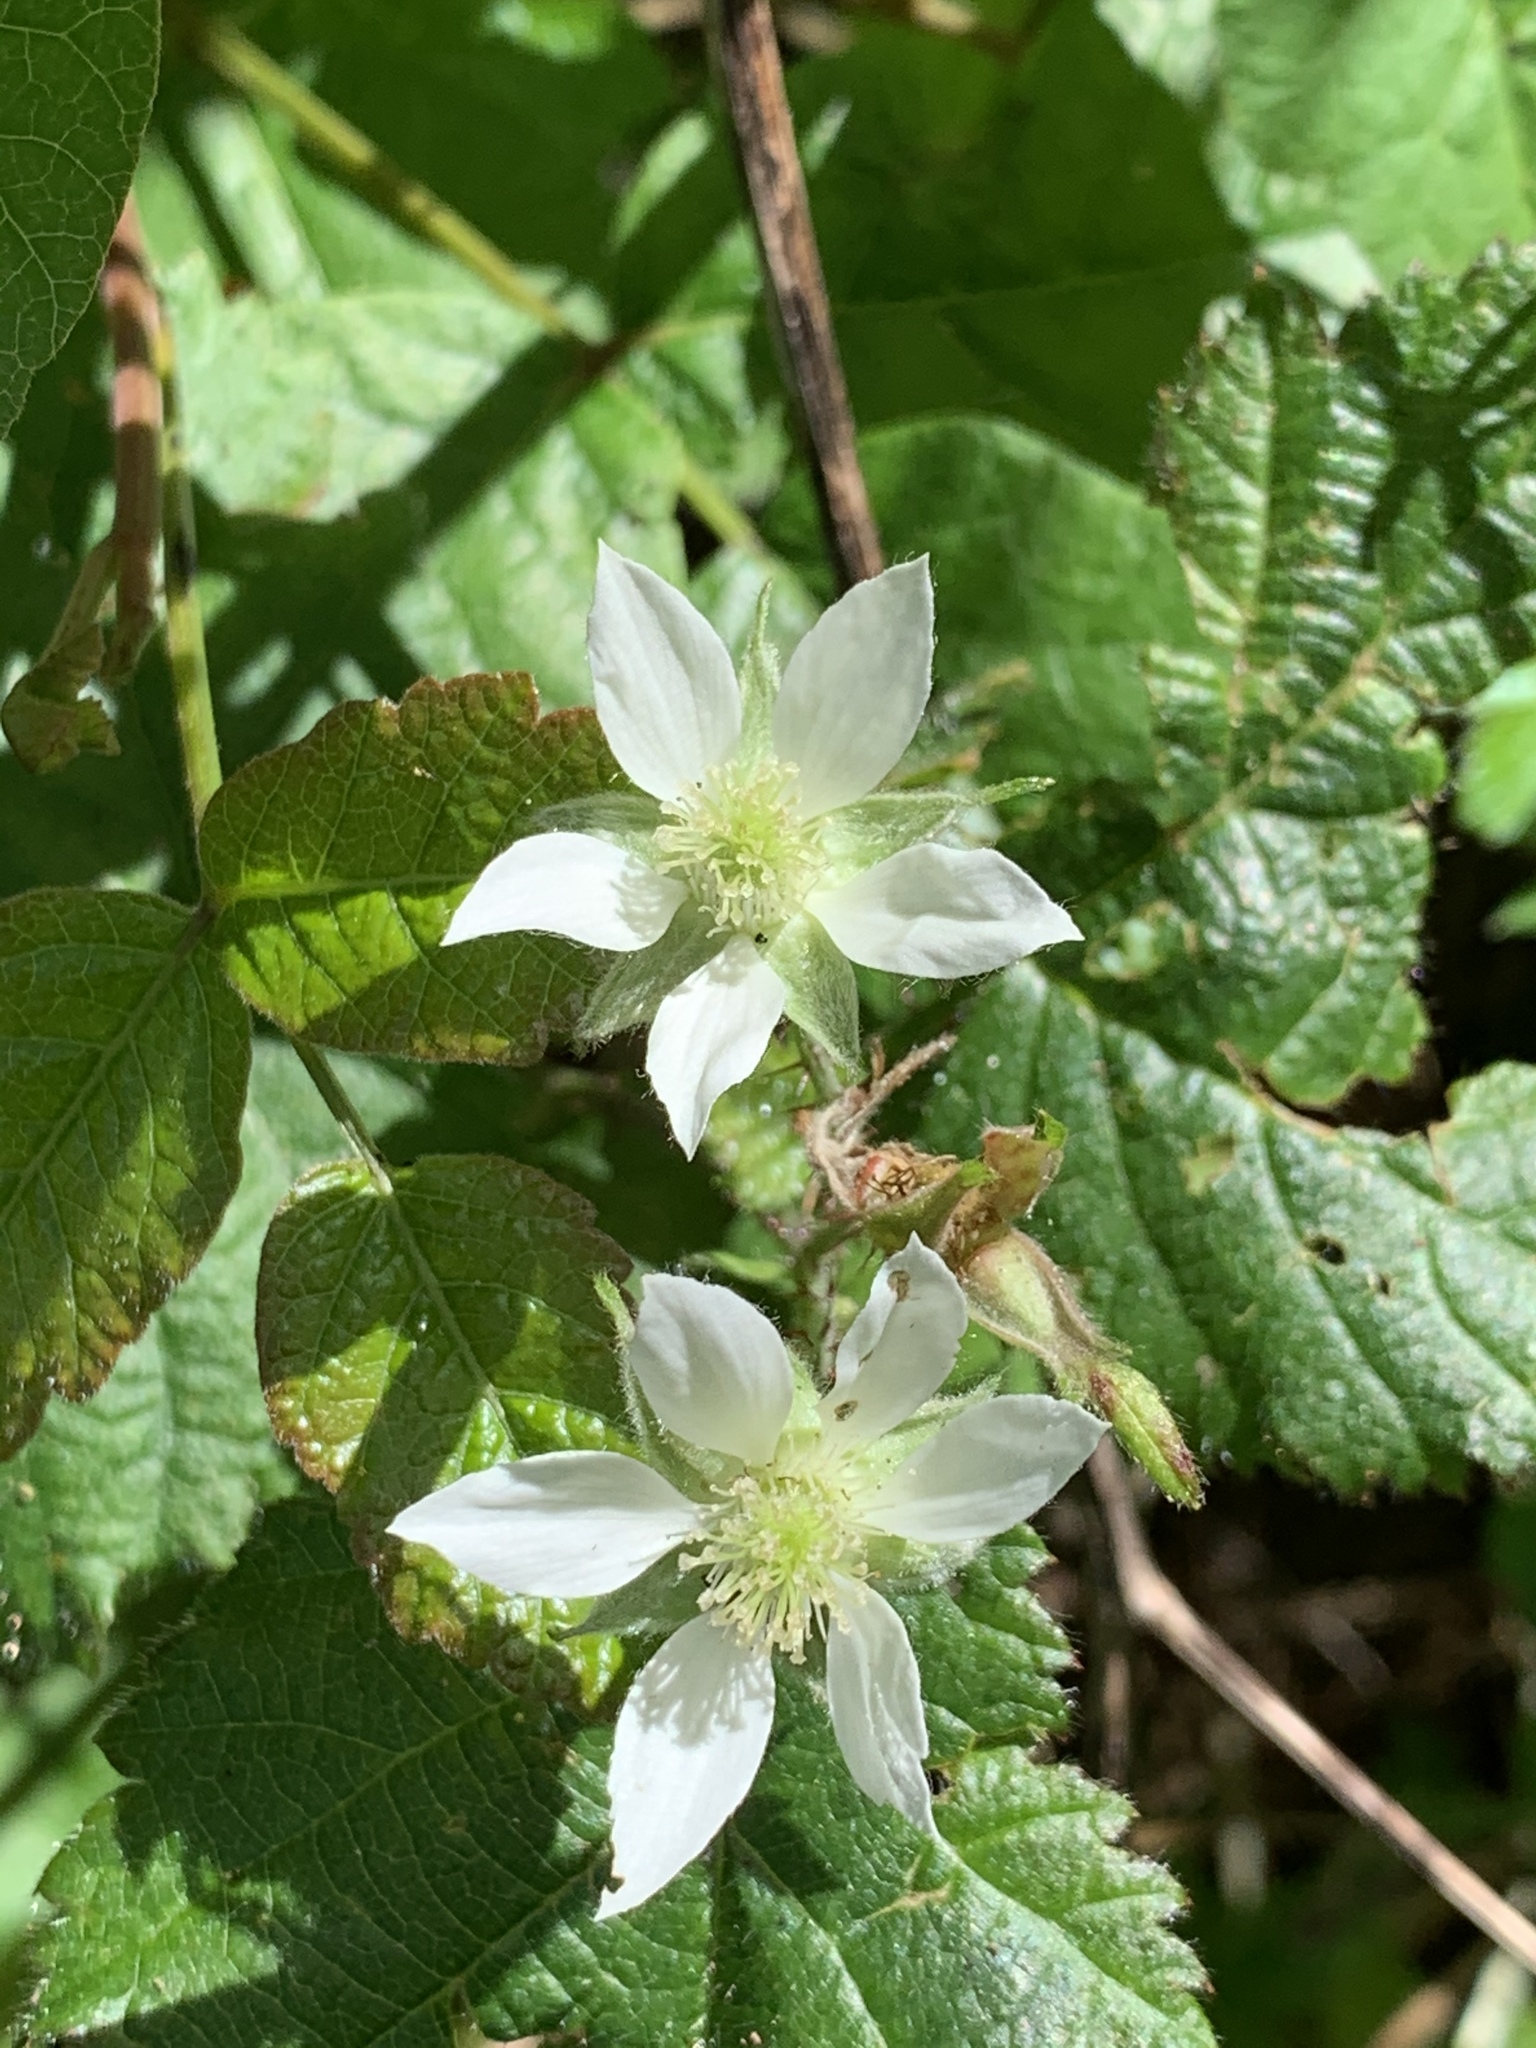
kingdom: Plantae
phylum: Tracheophyta
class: Magnoliopsida
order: Rosales
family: Rosaceae
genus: Rubus
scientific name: Rubus ursinus
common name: Pacific blackberry
